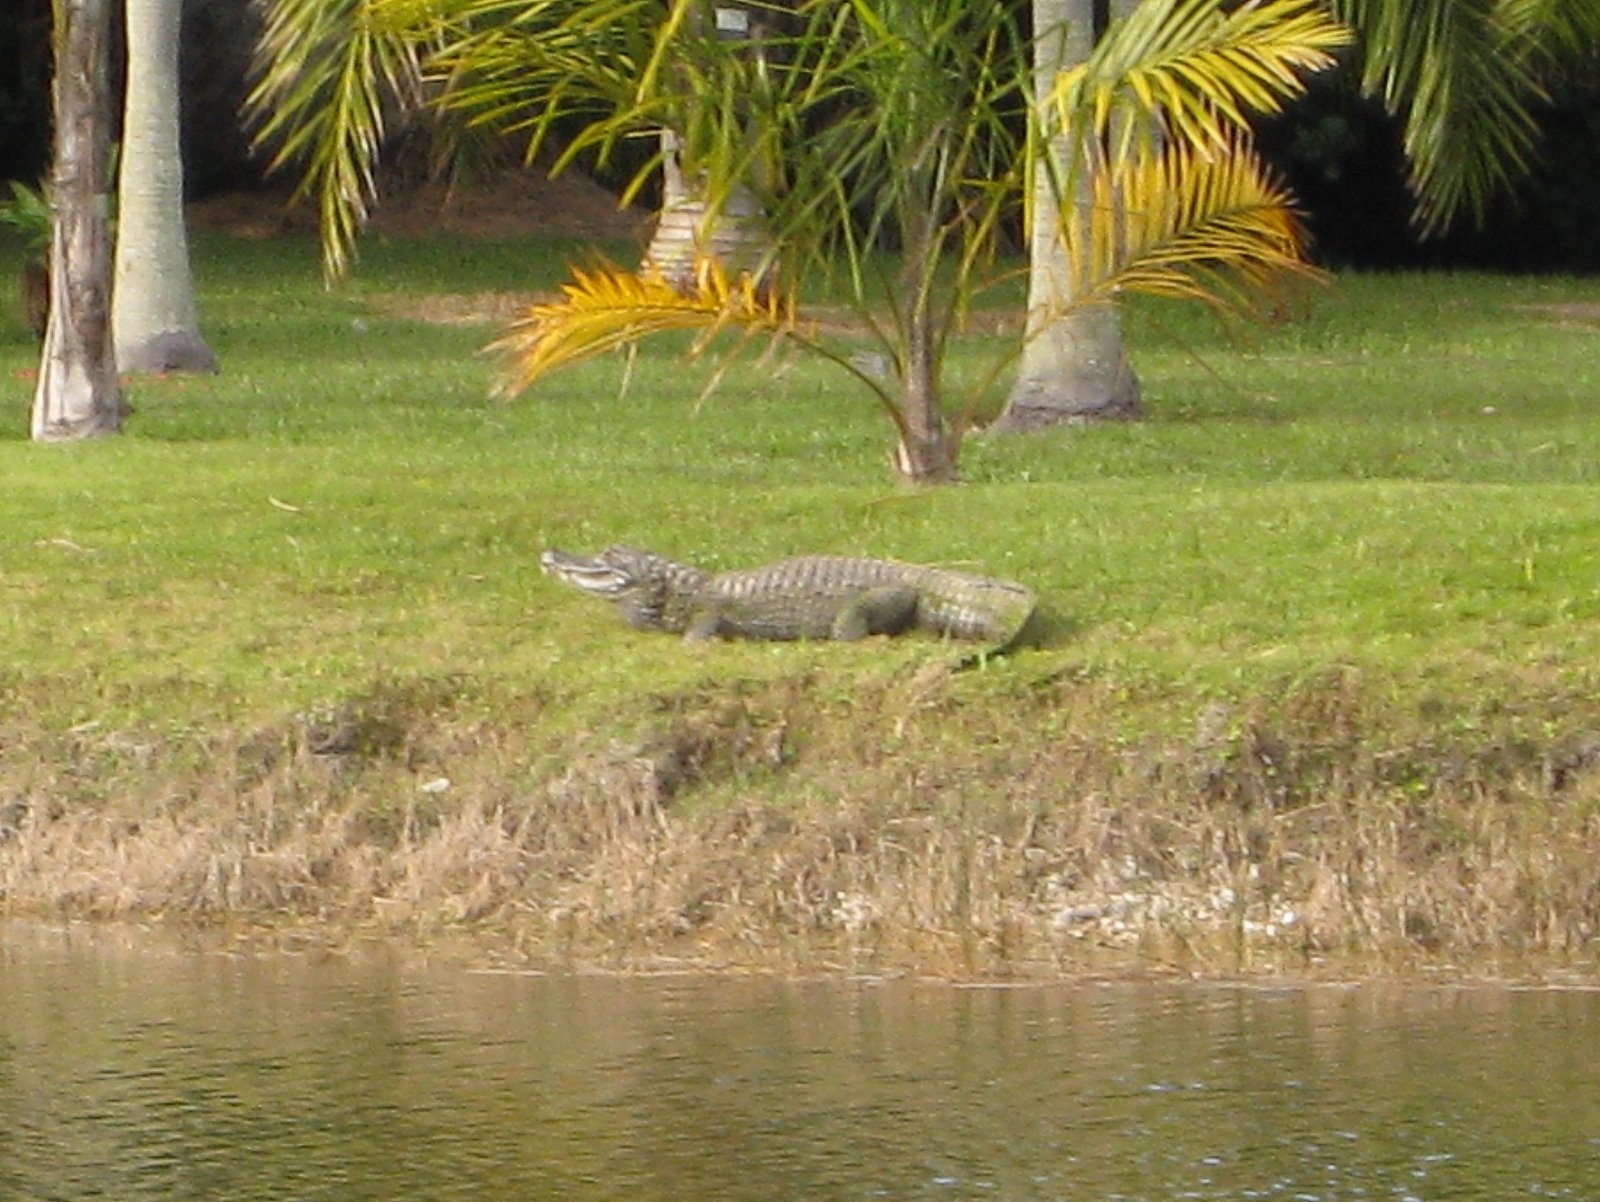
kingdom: Animalia
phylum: Chordata
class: Crocodylia
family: Alligatoridae
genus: Alligator
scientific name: Alligator mississippiensis
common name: American alligator
